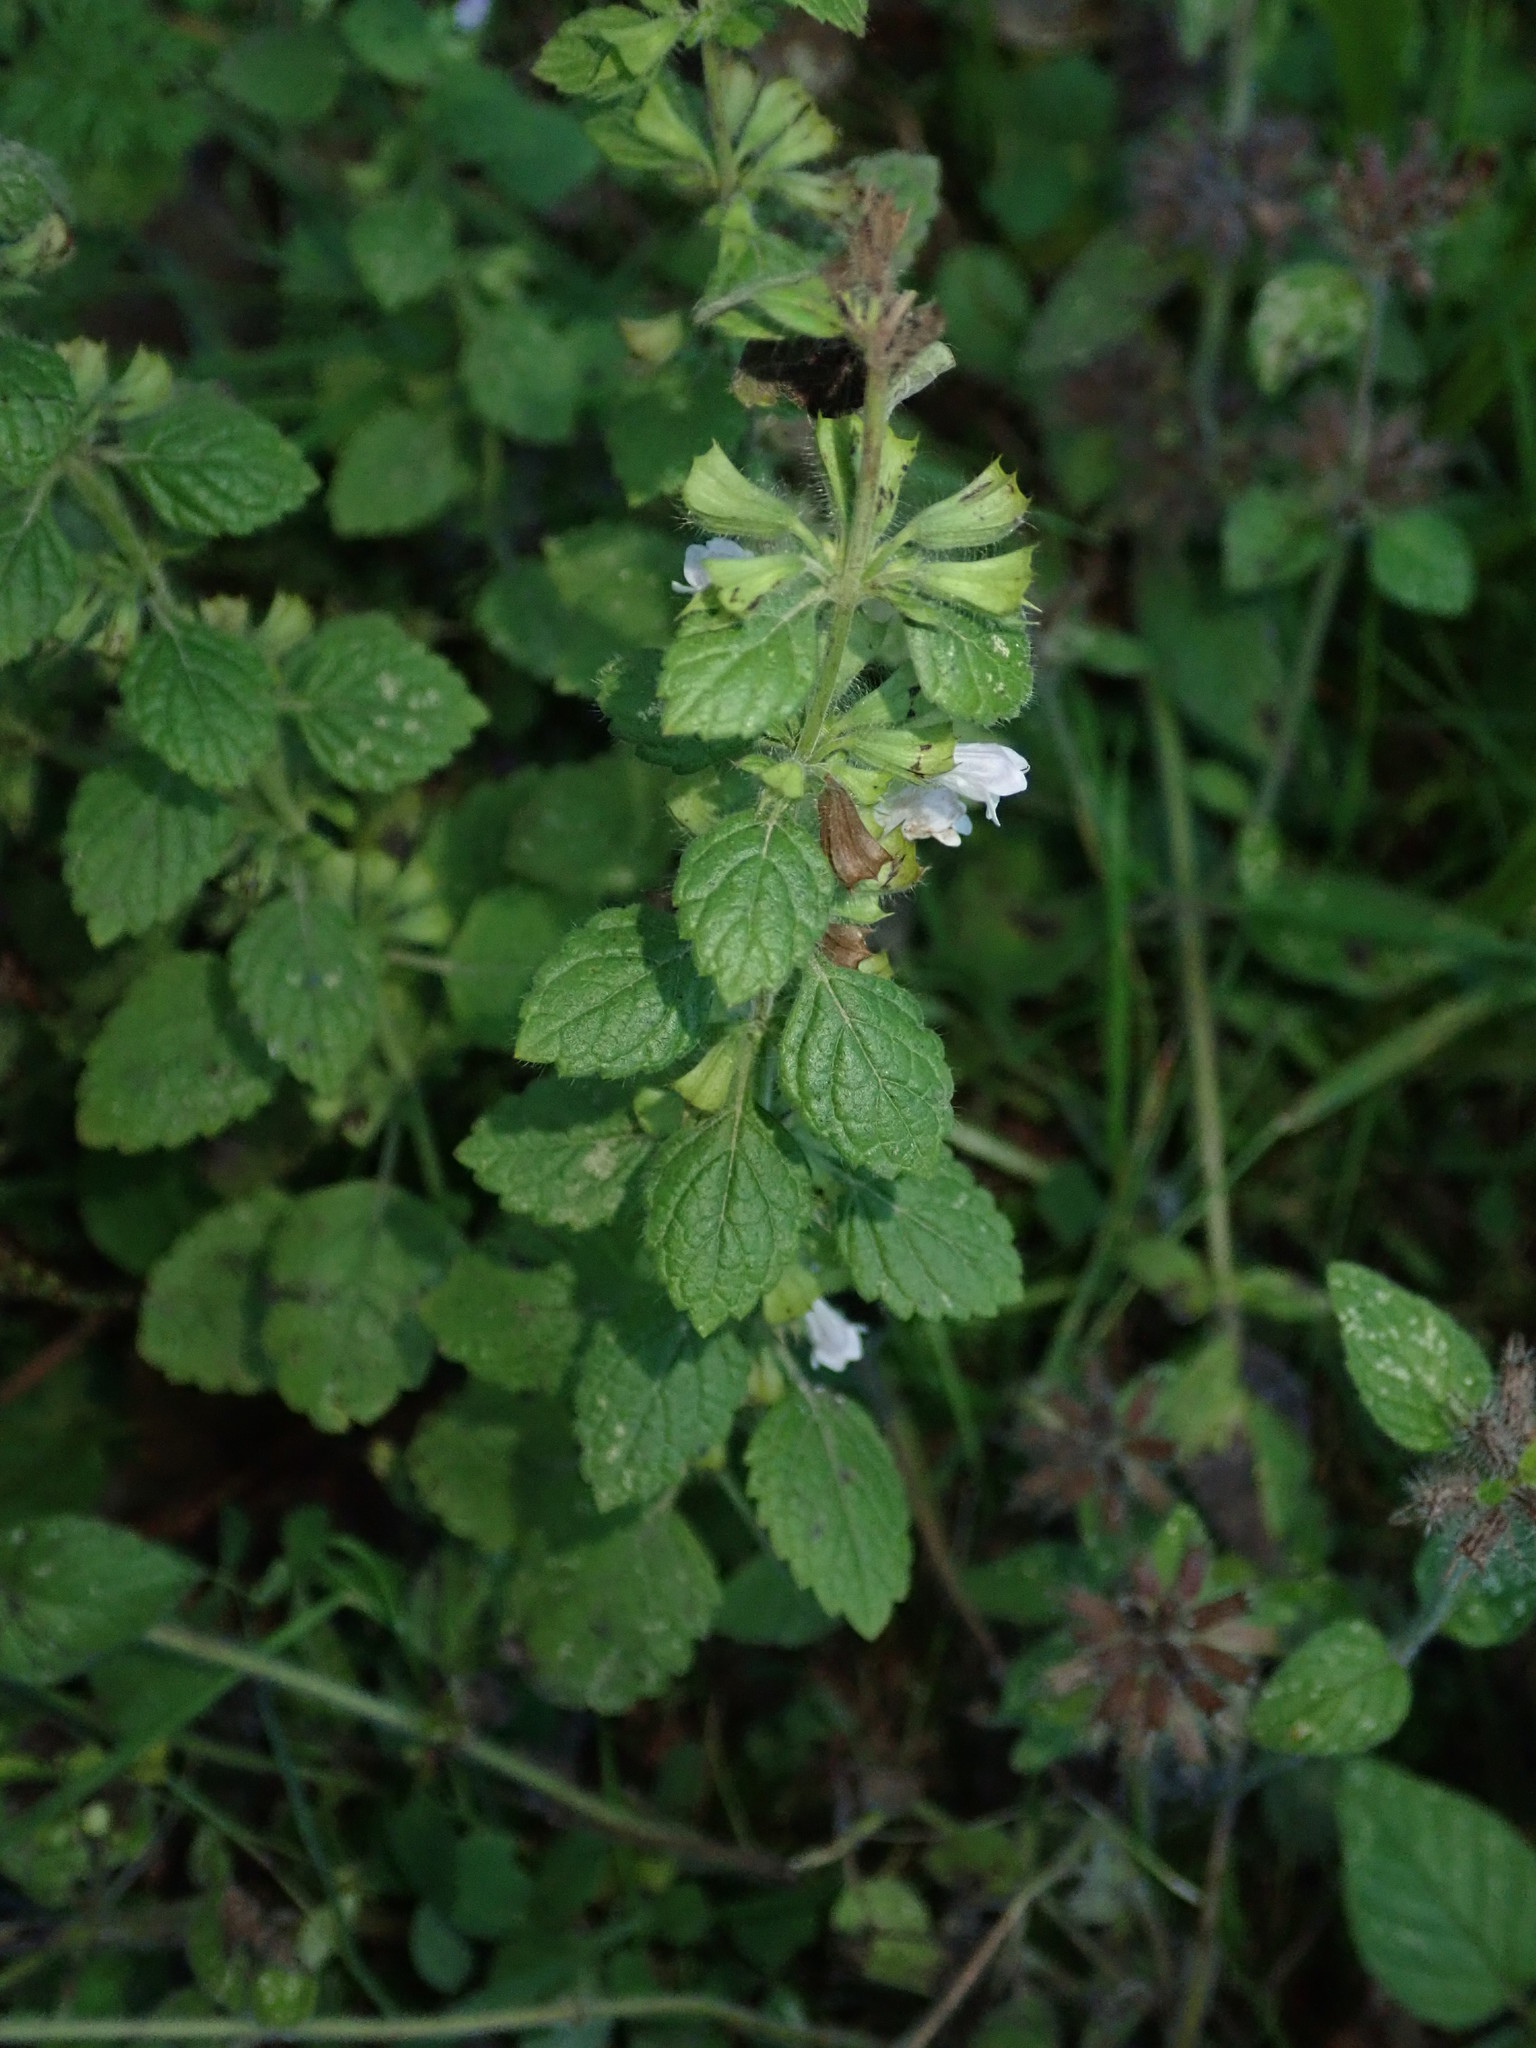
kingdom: Plantae
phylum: Tracheophyta
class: Magnoliopsida
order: Lamiales
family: Lamiaceae
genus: Melissa
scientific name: Melissa officinalis
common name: Balm
